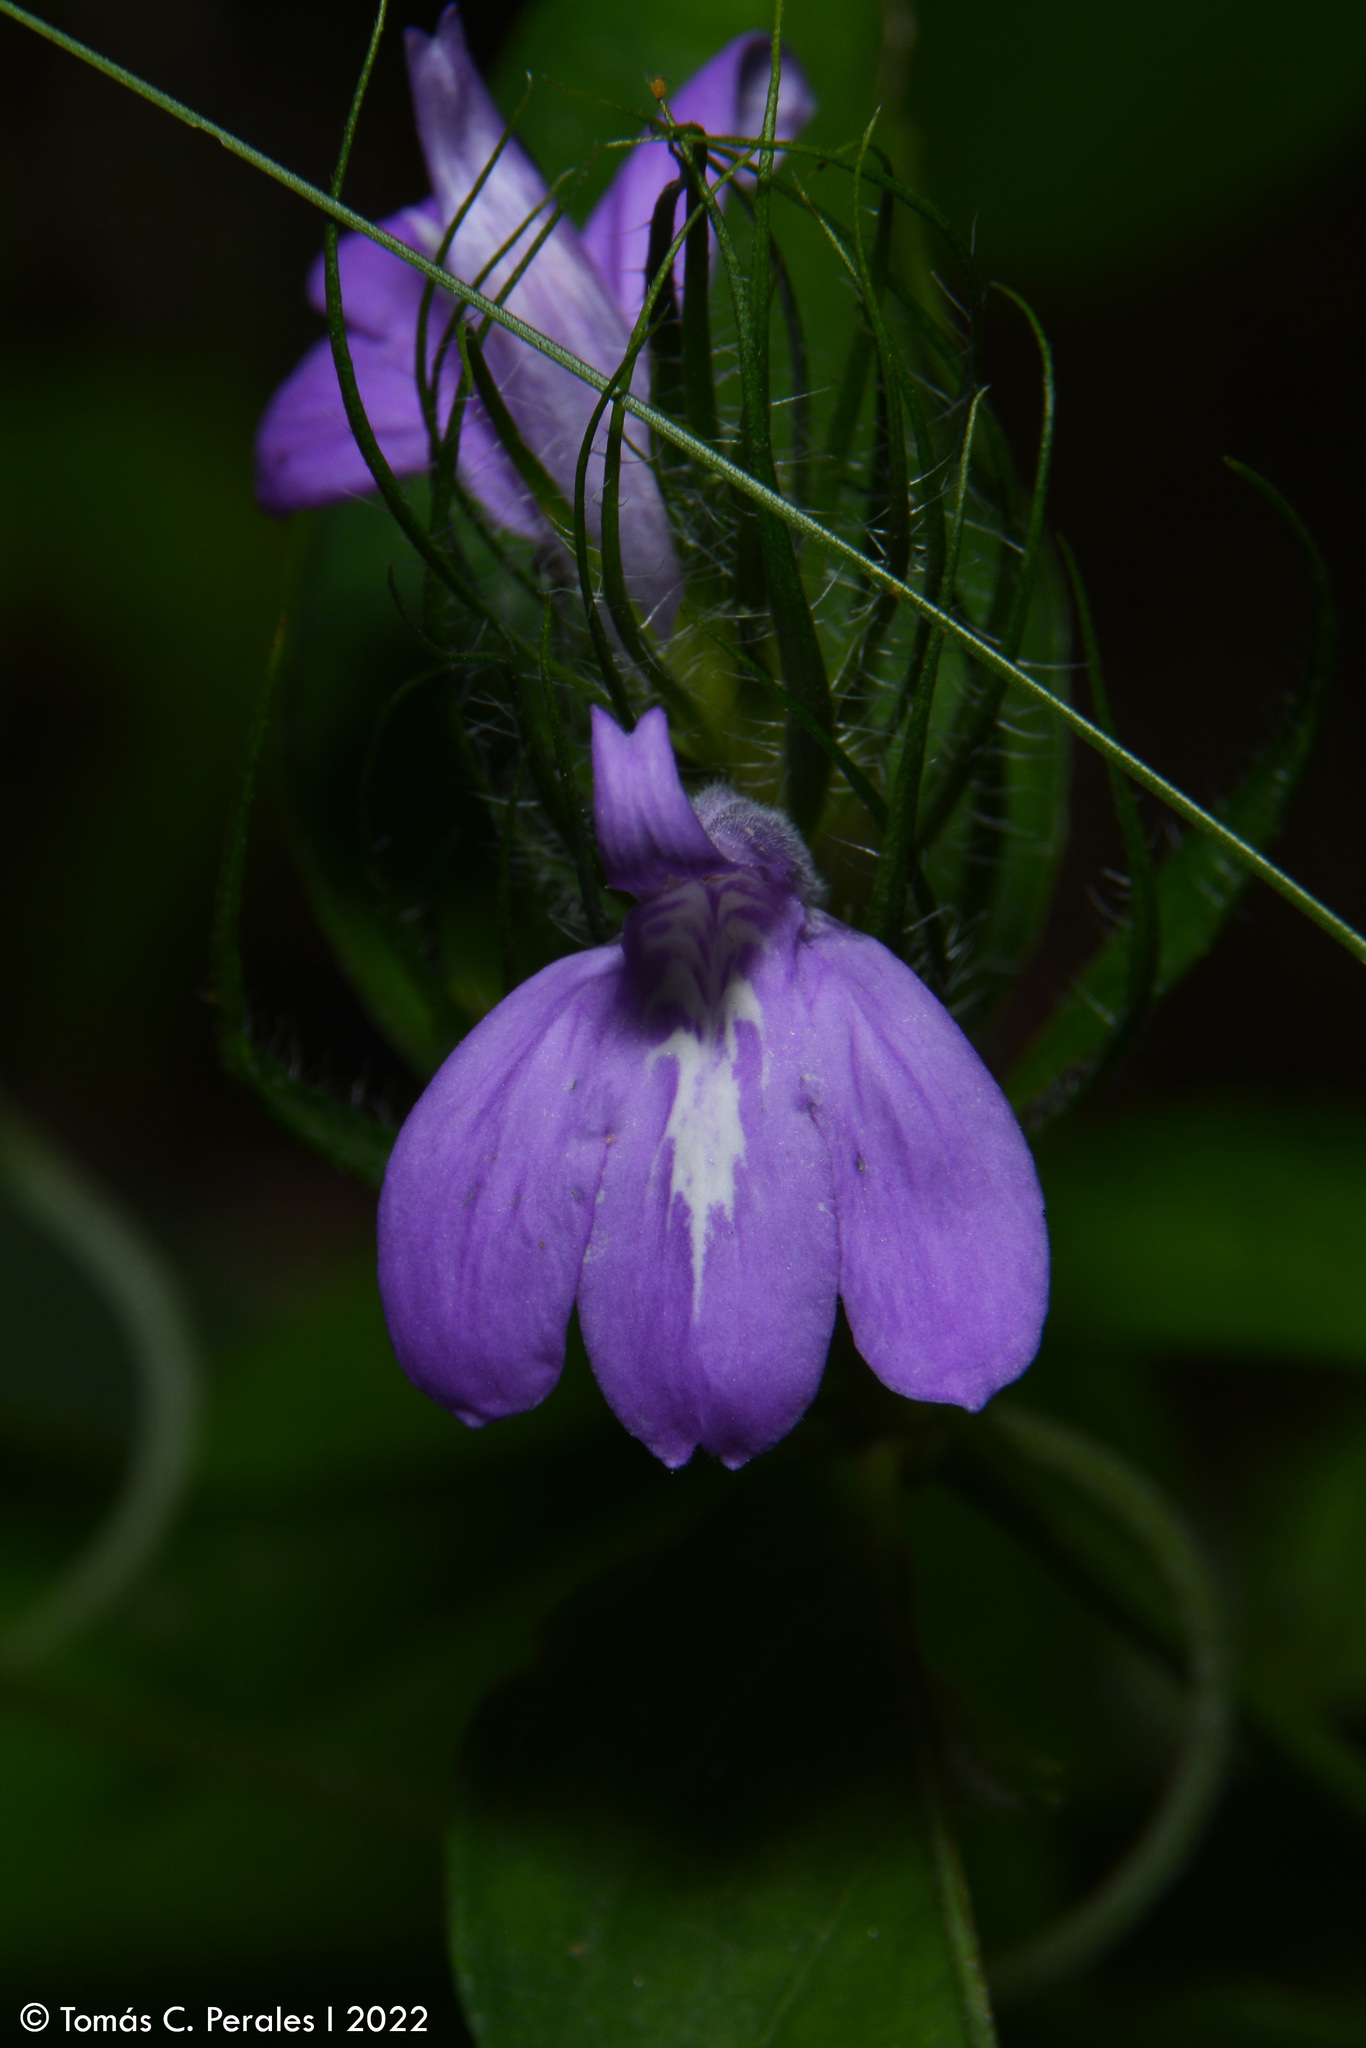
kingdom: Plantae
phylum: Tracheophyta
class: Magnoliopsida
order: Lamiales
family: Acanthaceae
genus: Justicia
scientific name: Justicia squarrosa
